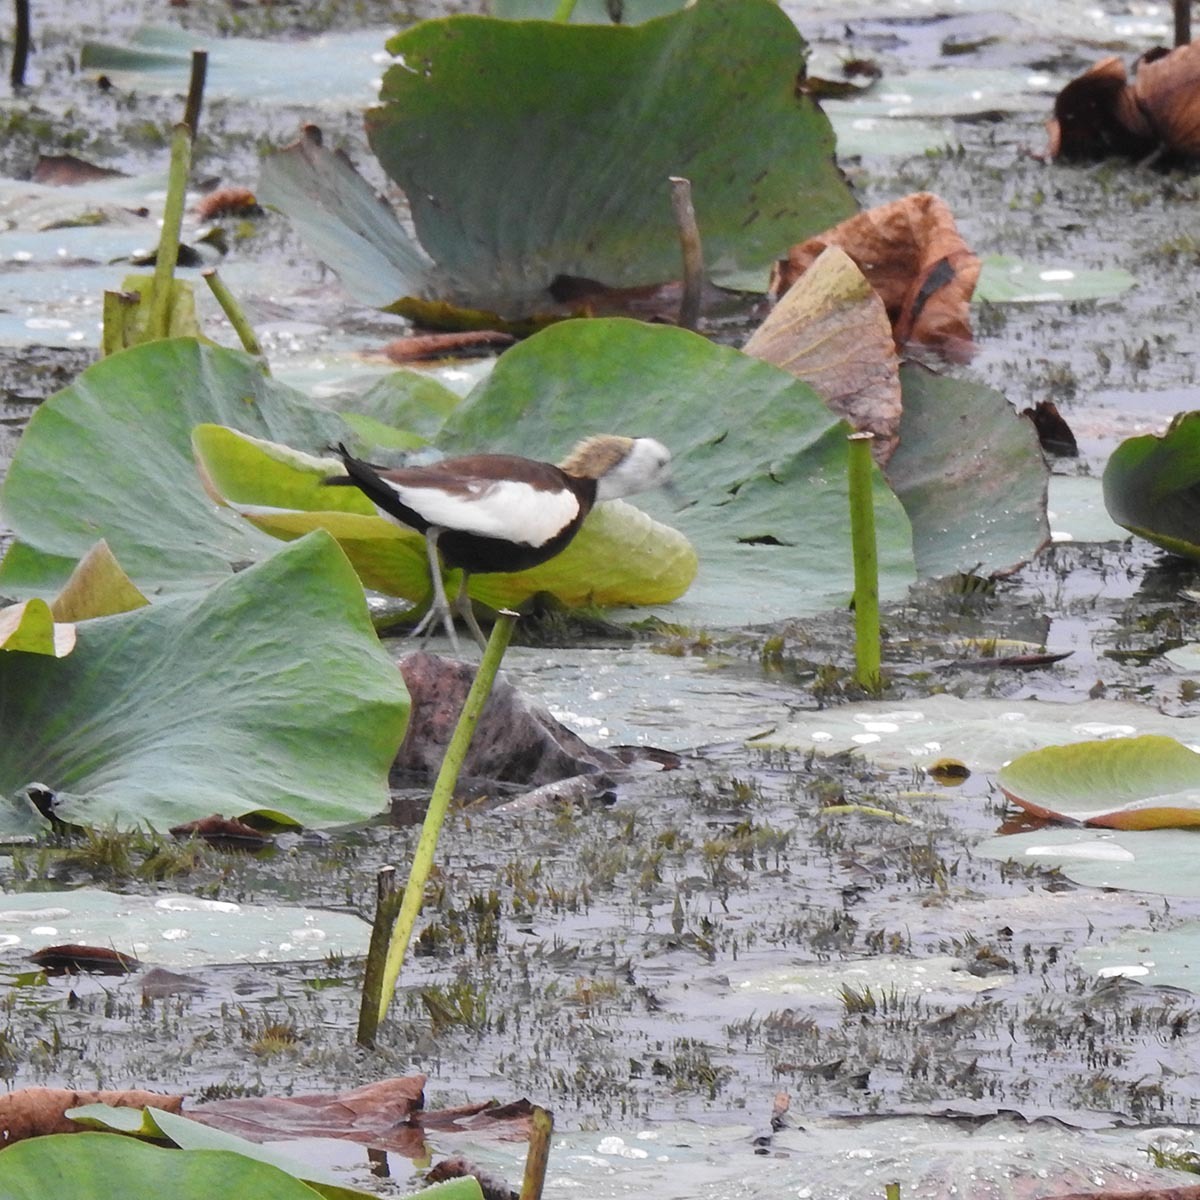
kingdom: Animalia
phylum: Chordata
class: Aves
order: Charadriiformes
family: Jacanidae
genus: Hydrophasianus
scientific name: Hydrophasianus chirurgus
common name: Pheasant-tailed jacana
